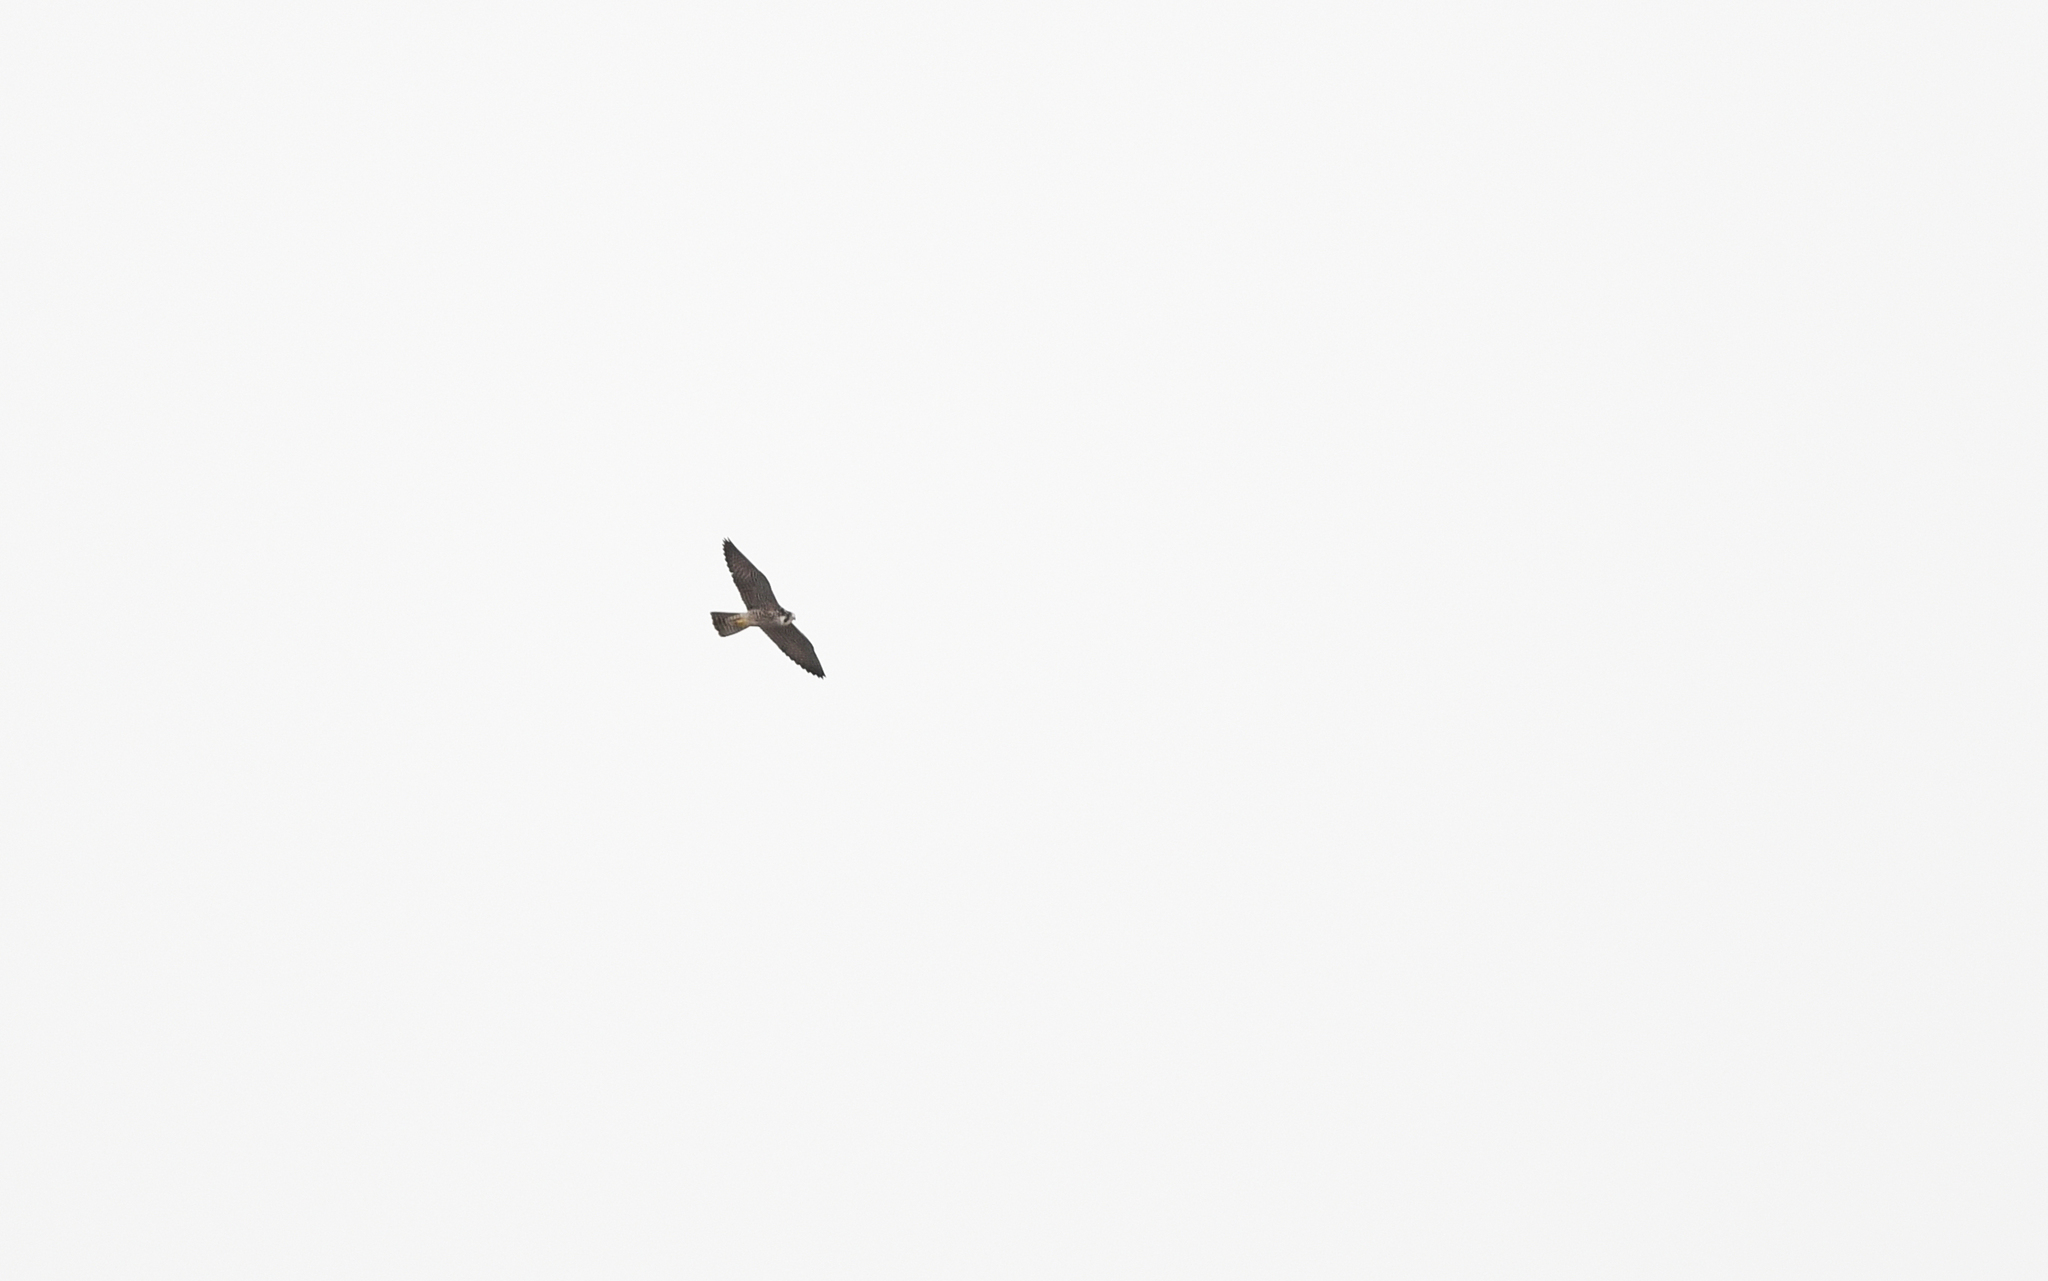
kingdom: Animalia
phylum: Chordata
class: Aves
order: Falconiformes
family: Falconidae
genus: Falco
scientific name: Falco peregrinus
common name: Peregrine falcon
